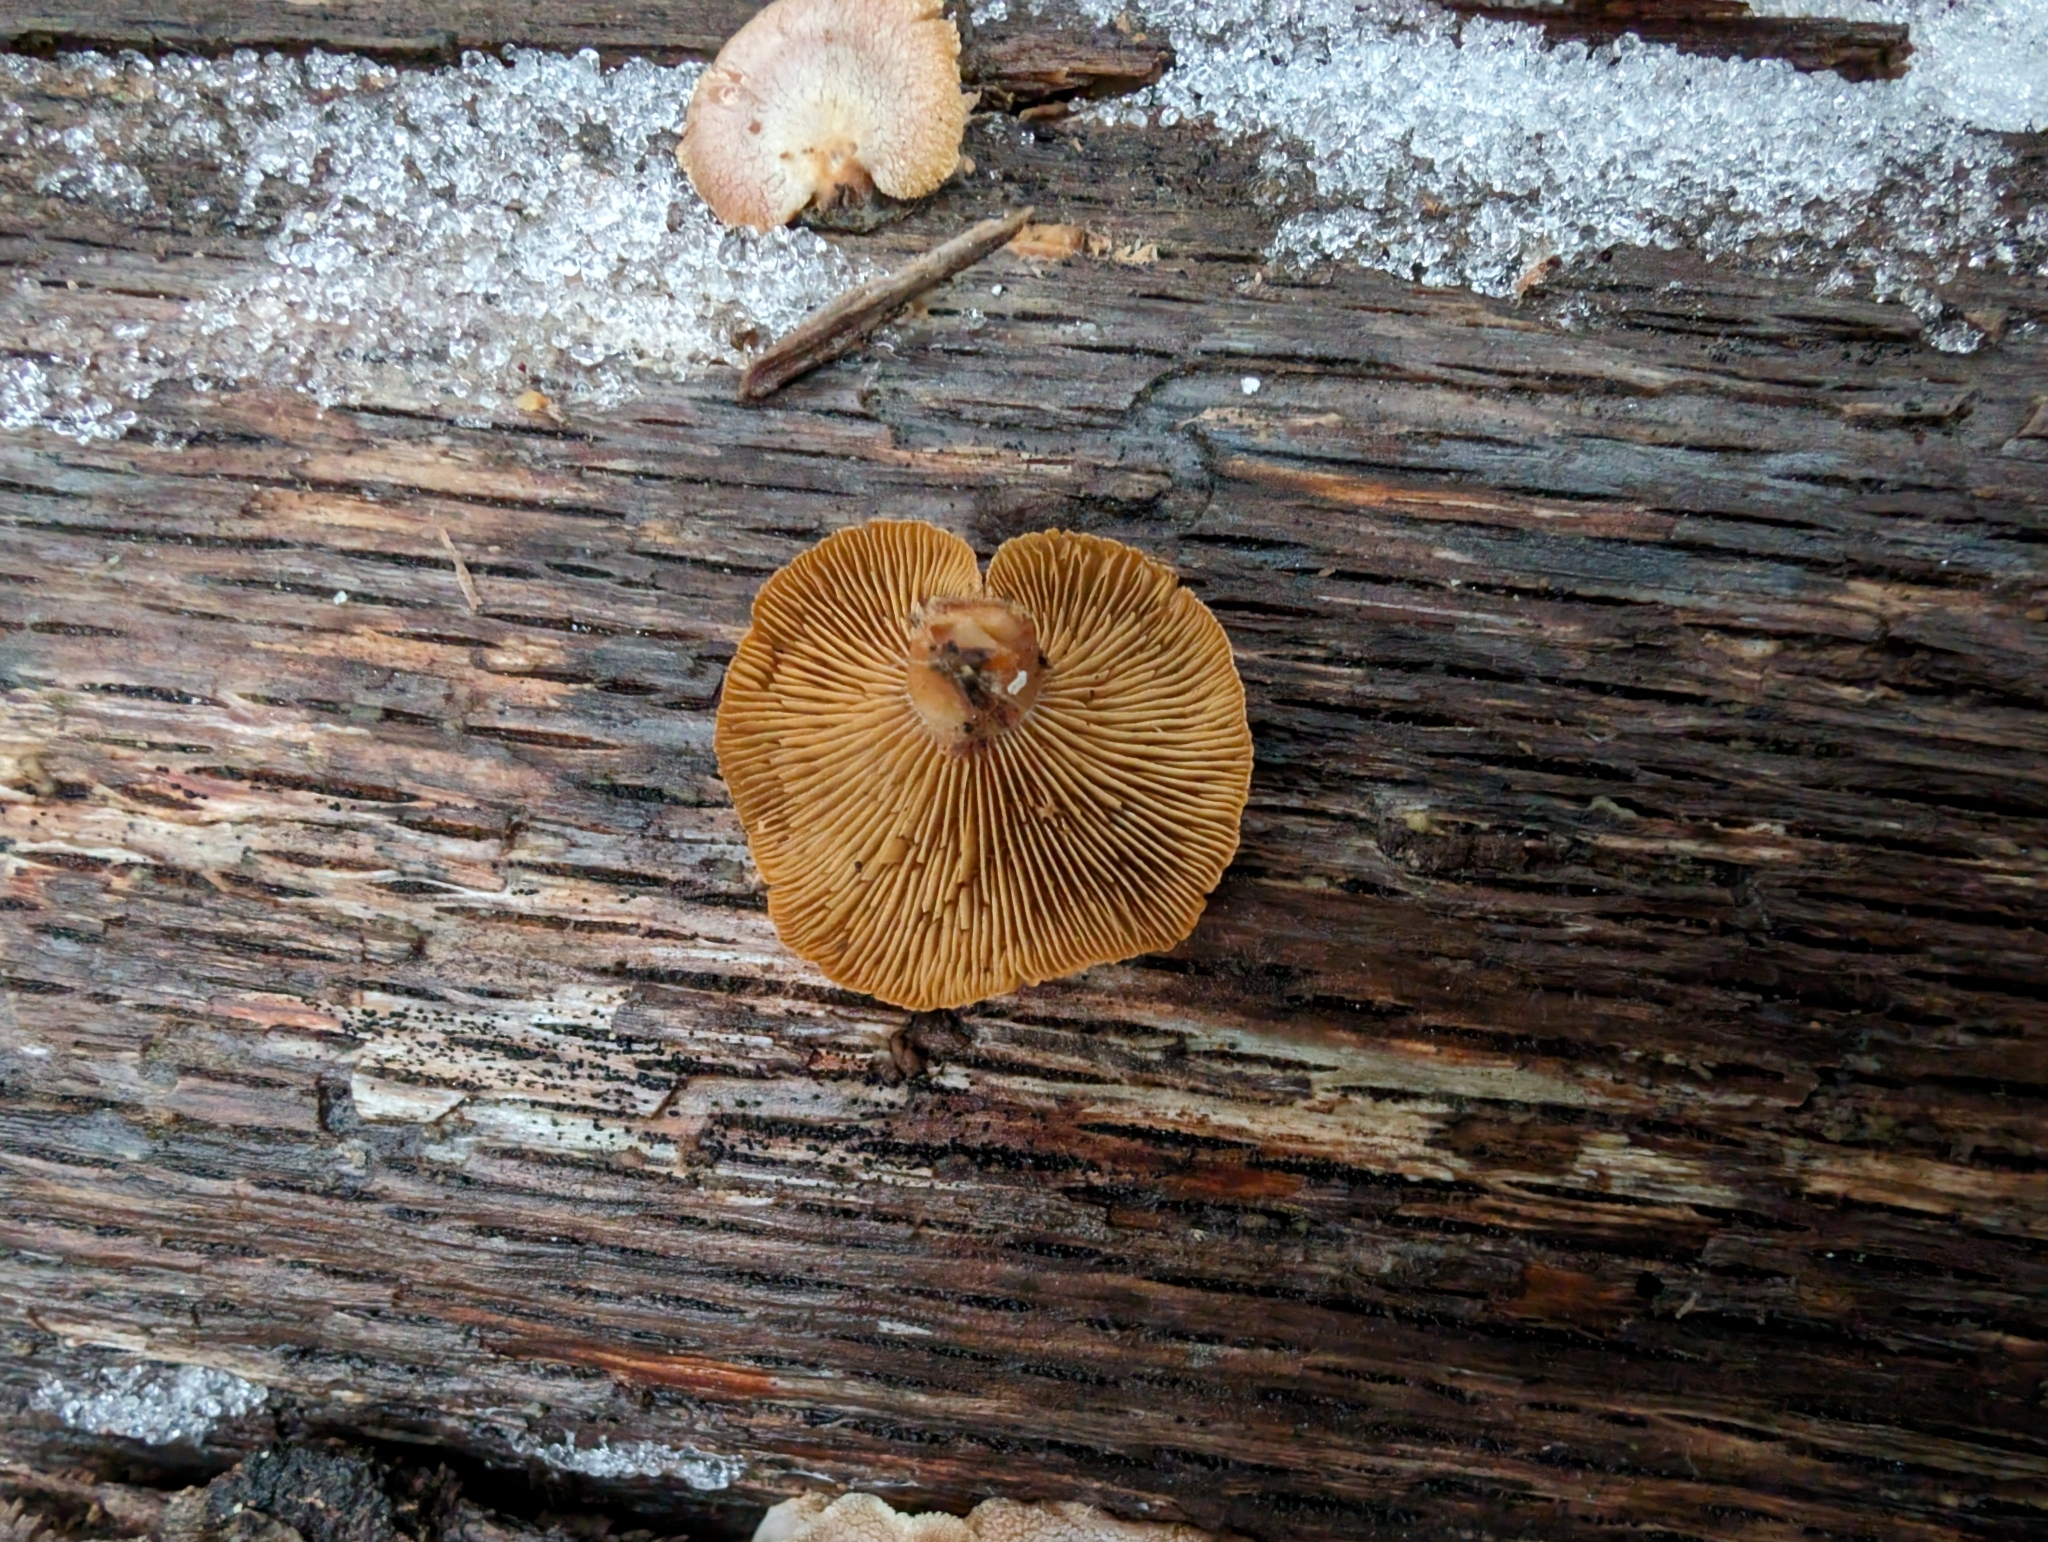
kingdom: Fungi
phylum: Basidiomycota
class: Agaricomycetes
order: Agaricales
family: Mycenaceae
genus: Panellus
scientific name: Panellus stipticus
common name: Bitter oysterling
